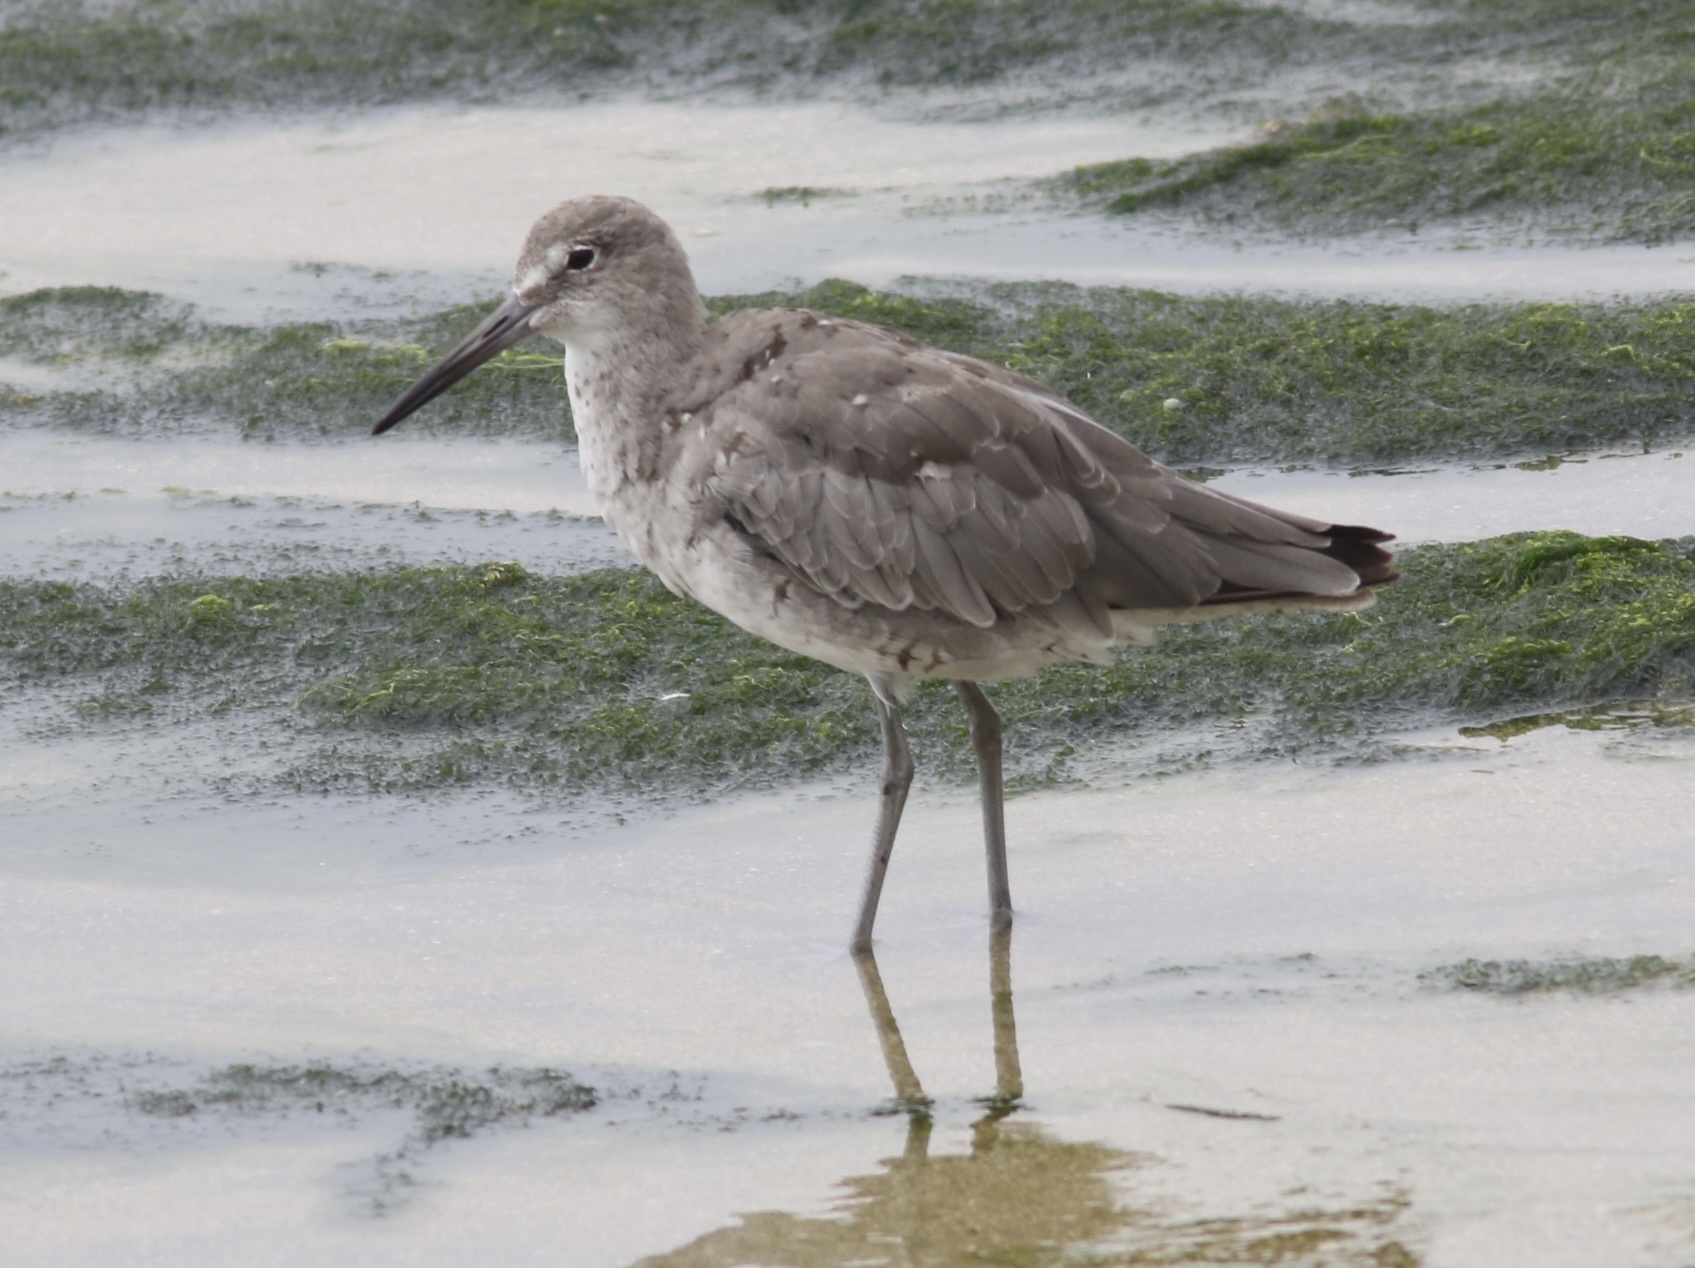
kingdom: Animalia
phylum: Chordata
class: Aves
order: Charadriiformes
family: Scolopacidae
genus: Tringa
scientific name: Tringa semipalmata
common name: Willet
